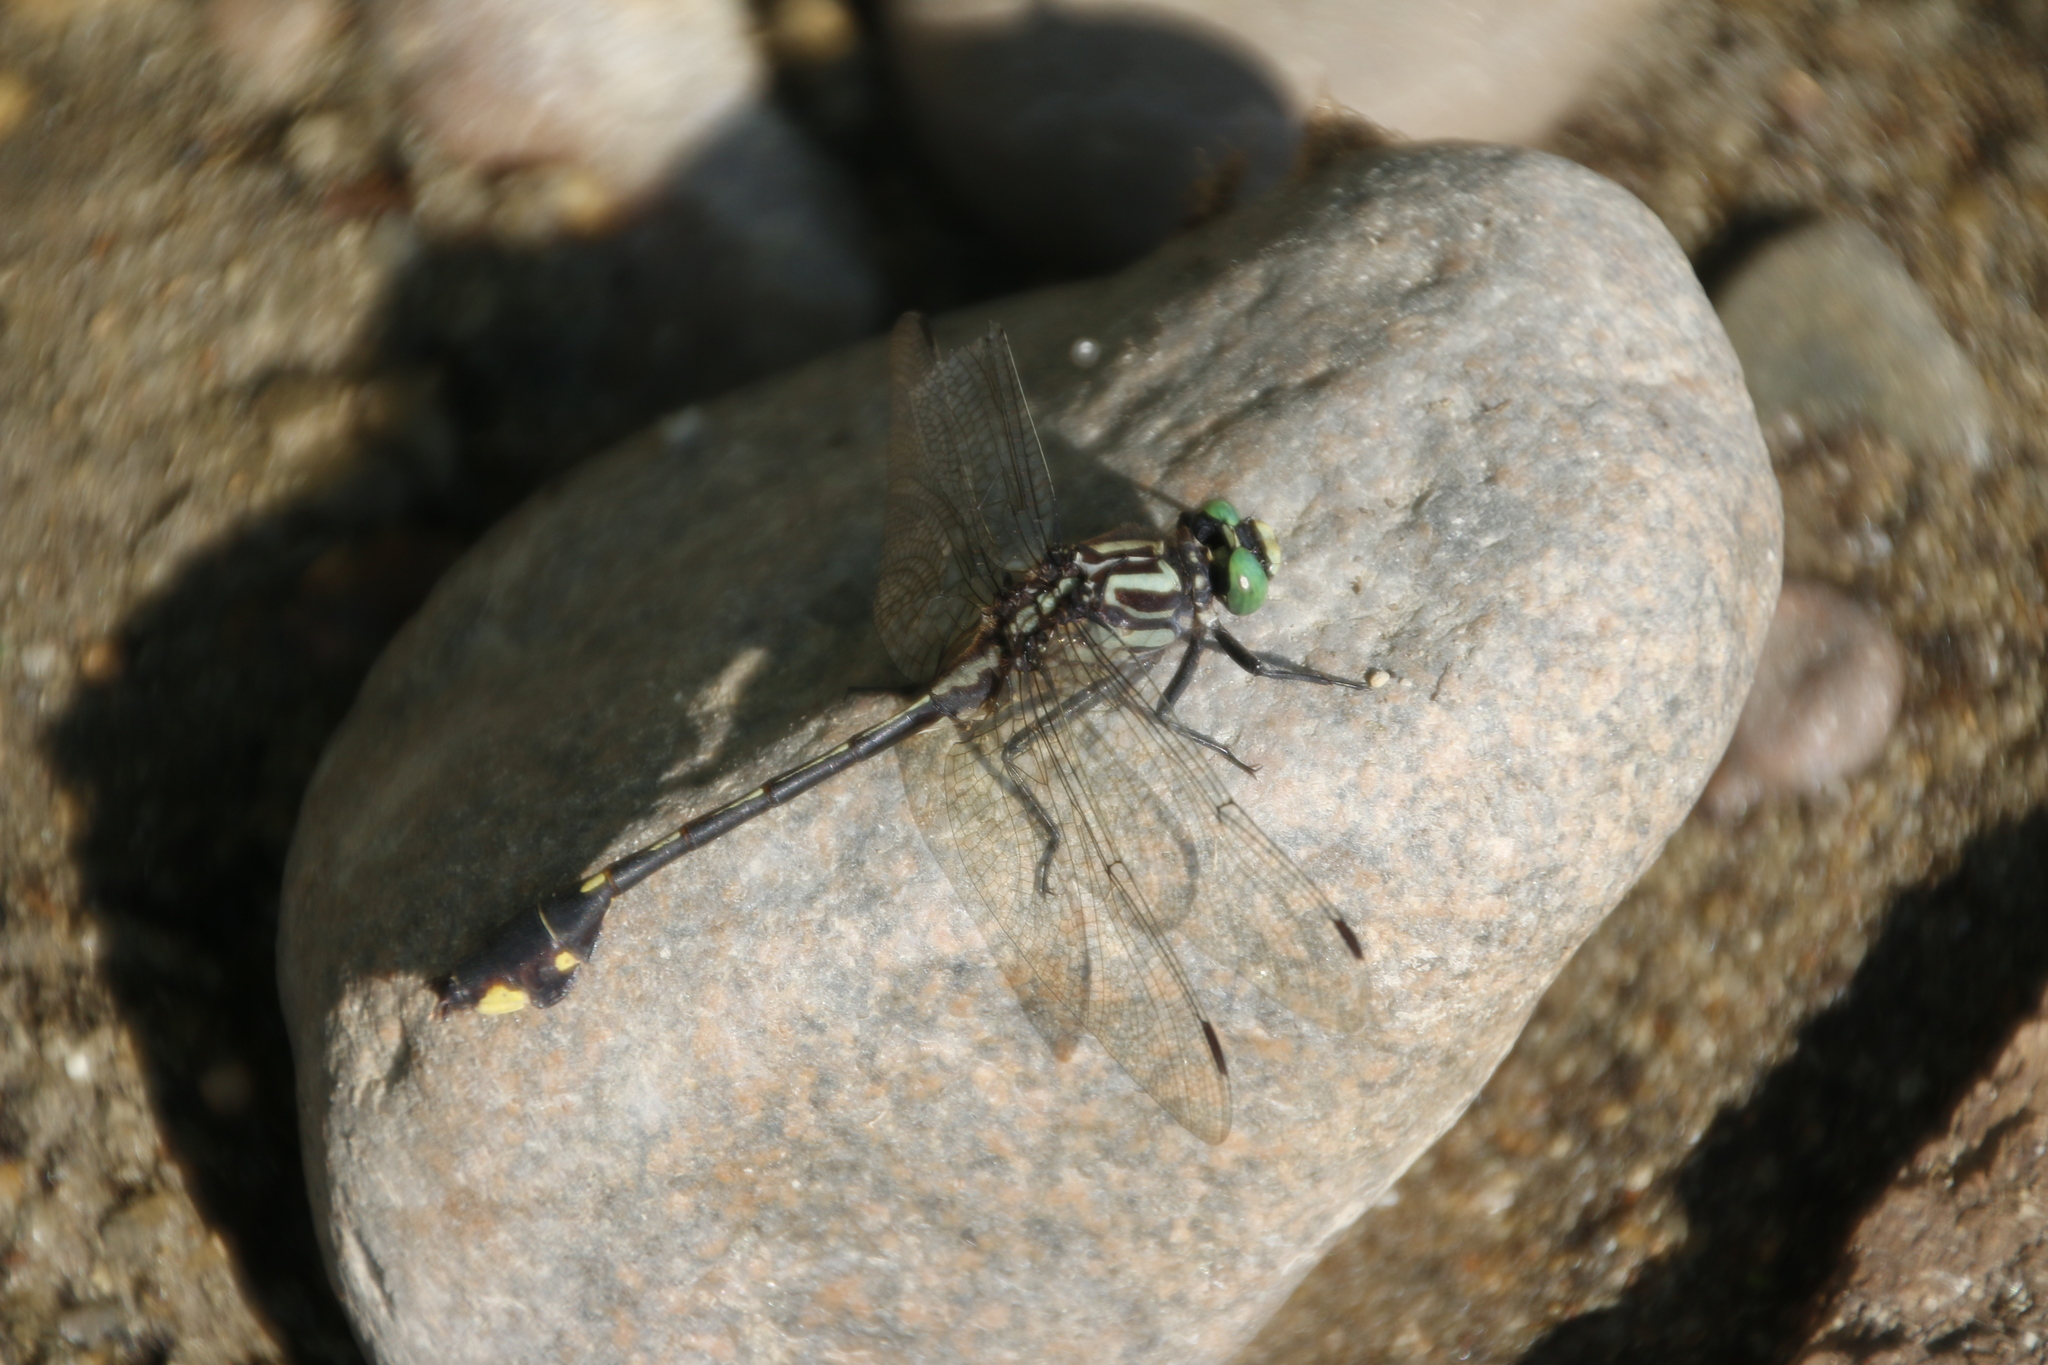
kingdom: Animalia
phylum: Arthropoda
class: Insecta
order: Odonata
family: Gomphidae
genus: Gomphurus
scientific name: Gomphurus vastus
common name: Cobra clubtail
